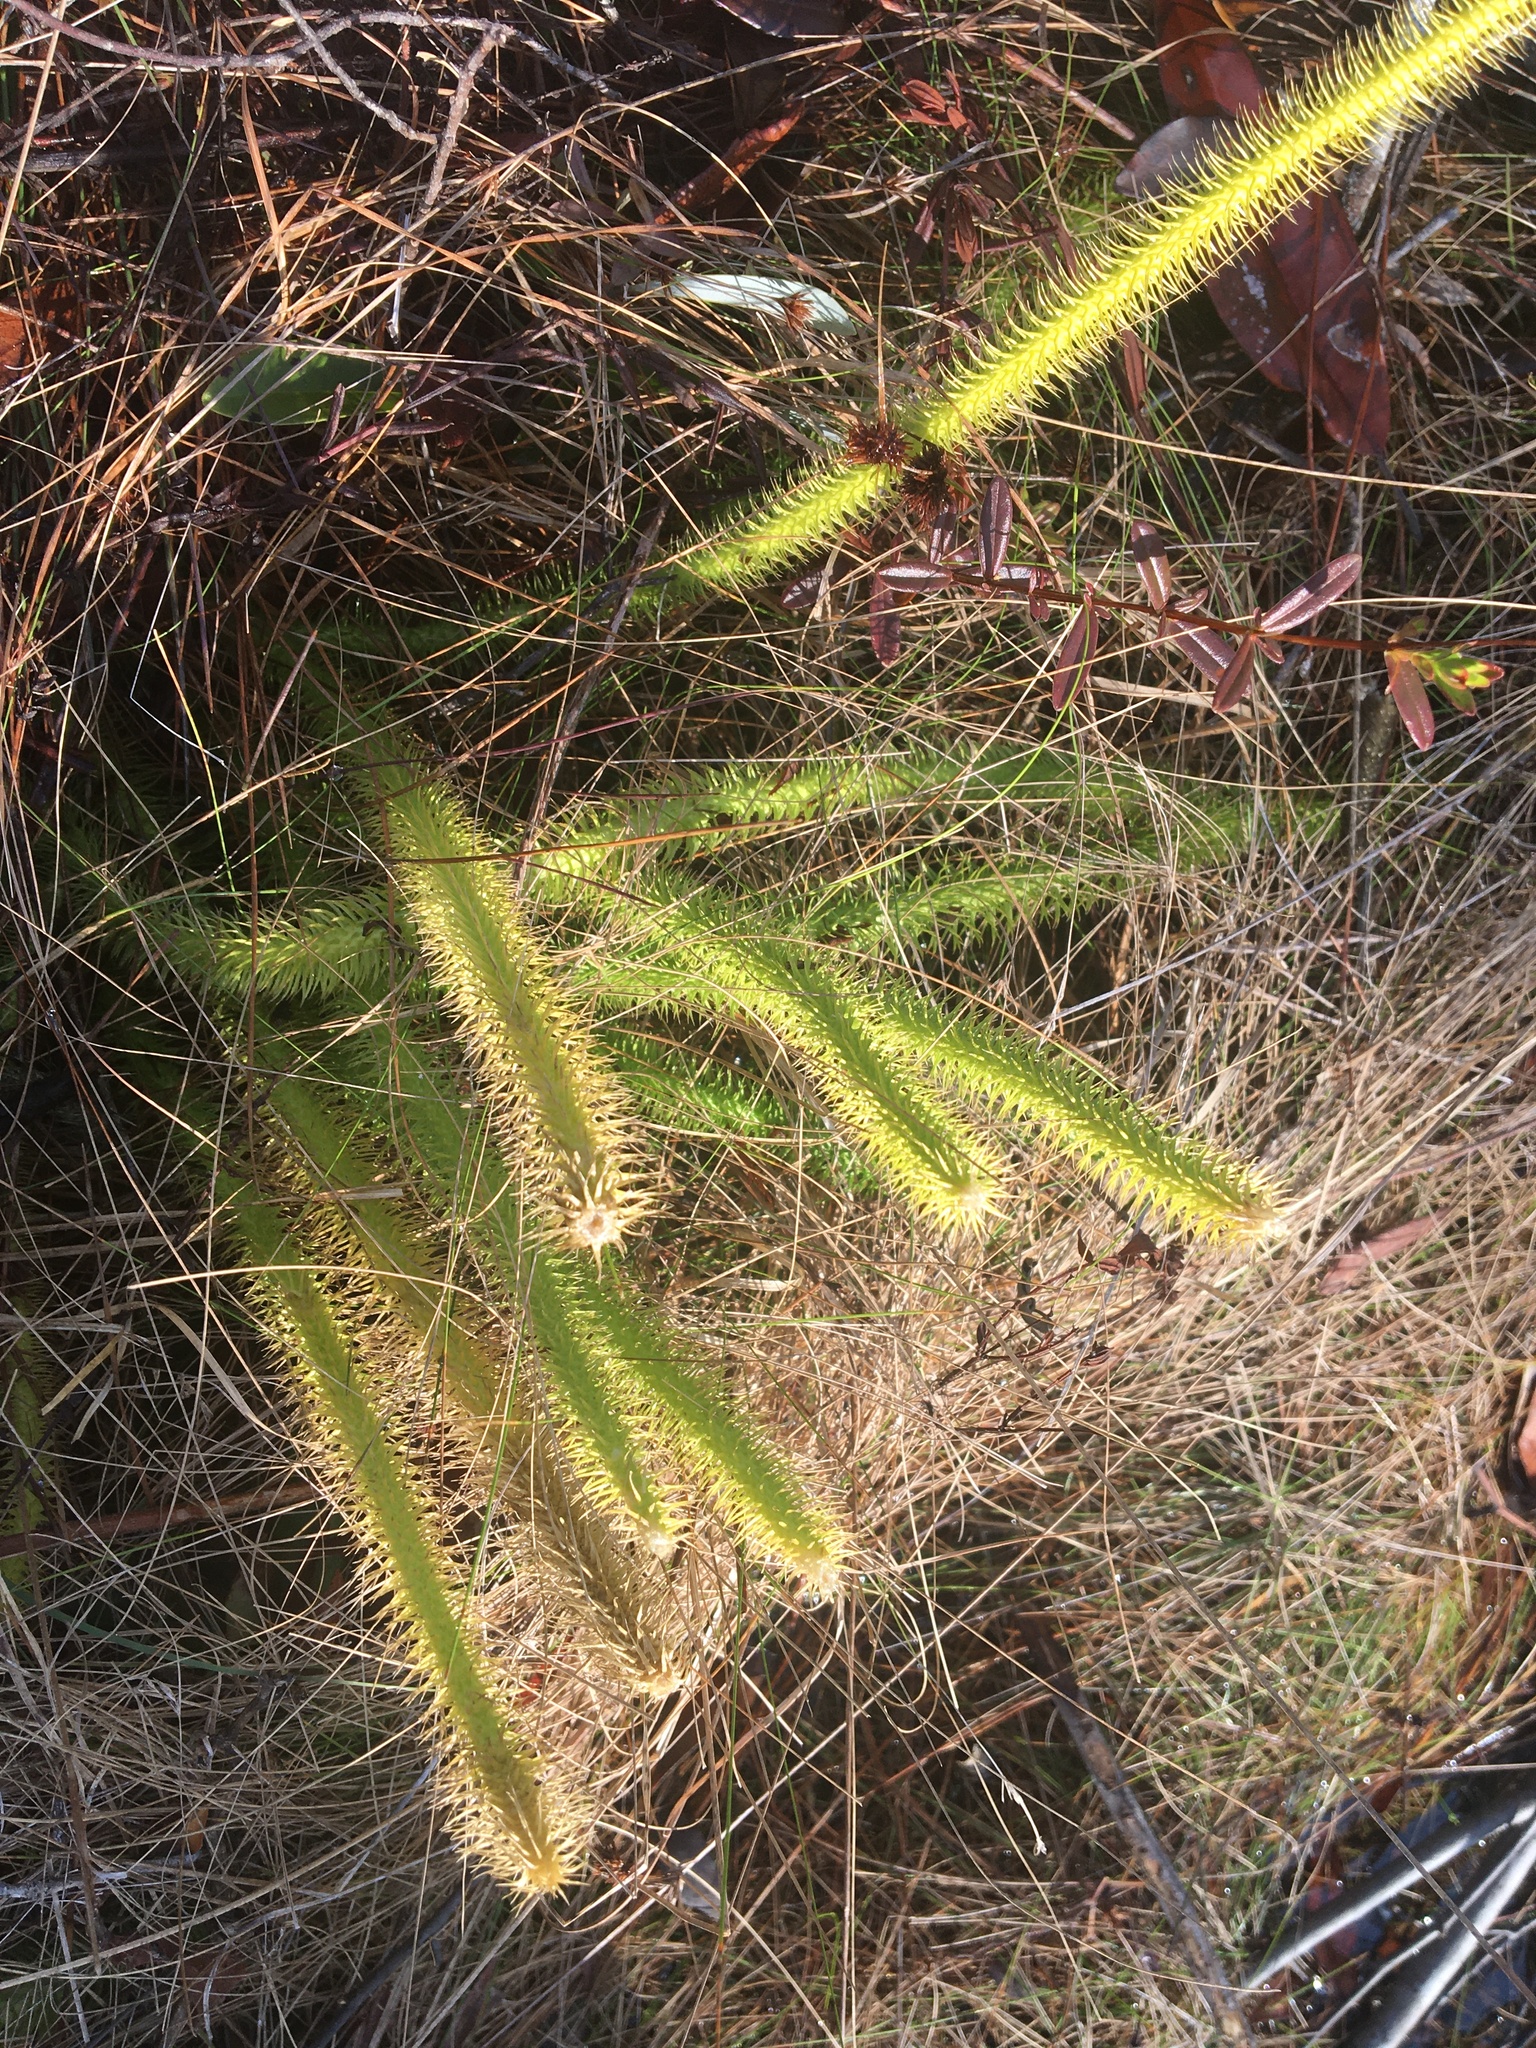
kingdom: Plantae
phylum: Tracheophyta
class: Lycopodiopsida
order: Lycopodiales
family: Lycopodiaceae
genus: Lycopodiella
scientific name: Lycopodiella alopecuroides
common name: Foxtail clubmoss
